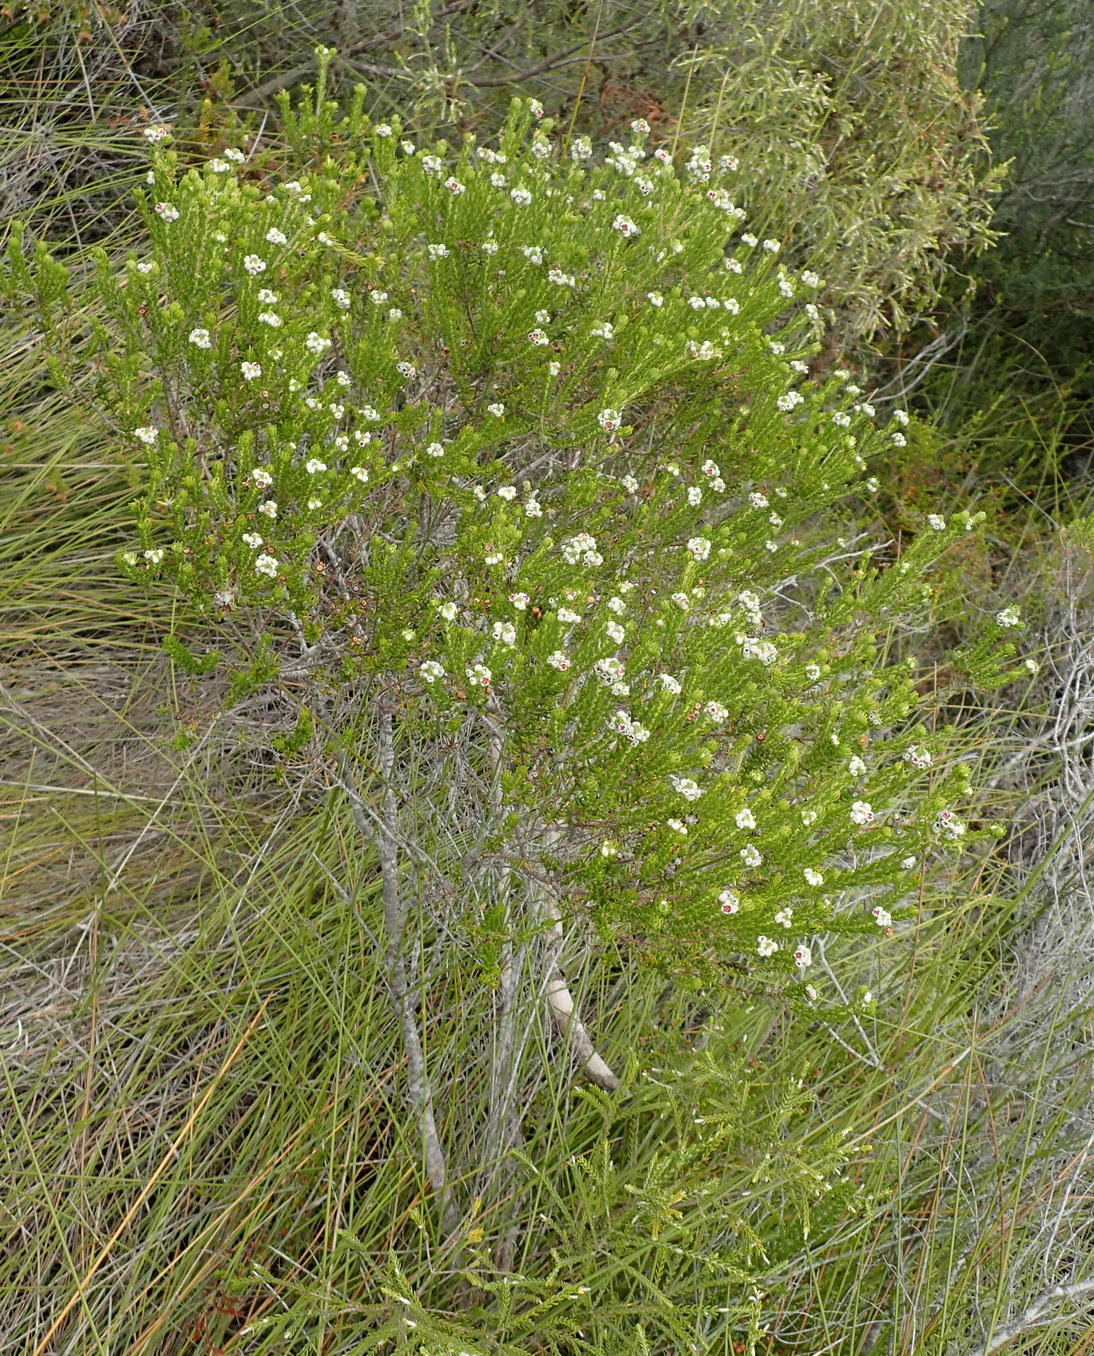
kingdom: Plantae
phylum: Tracheophyta
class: Magnoliopsida
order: Rosales
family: Rhamnaceae
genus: Phylica
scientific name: Phylica purpurea
